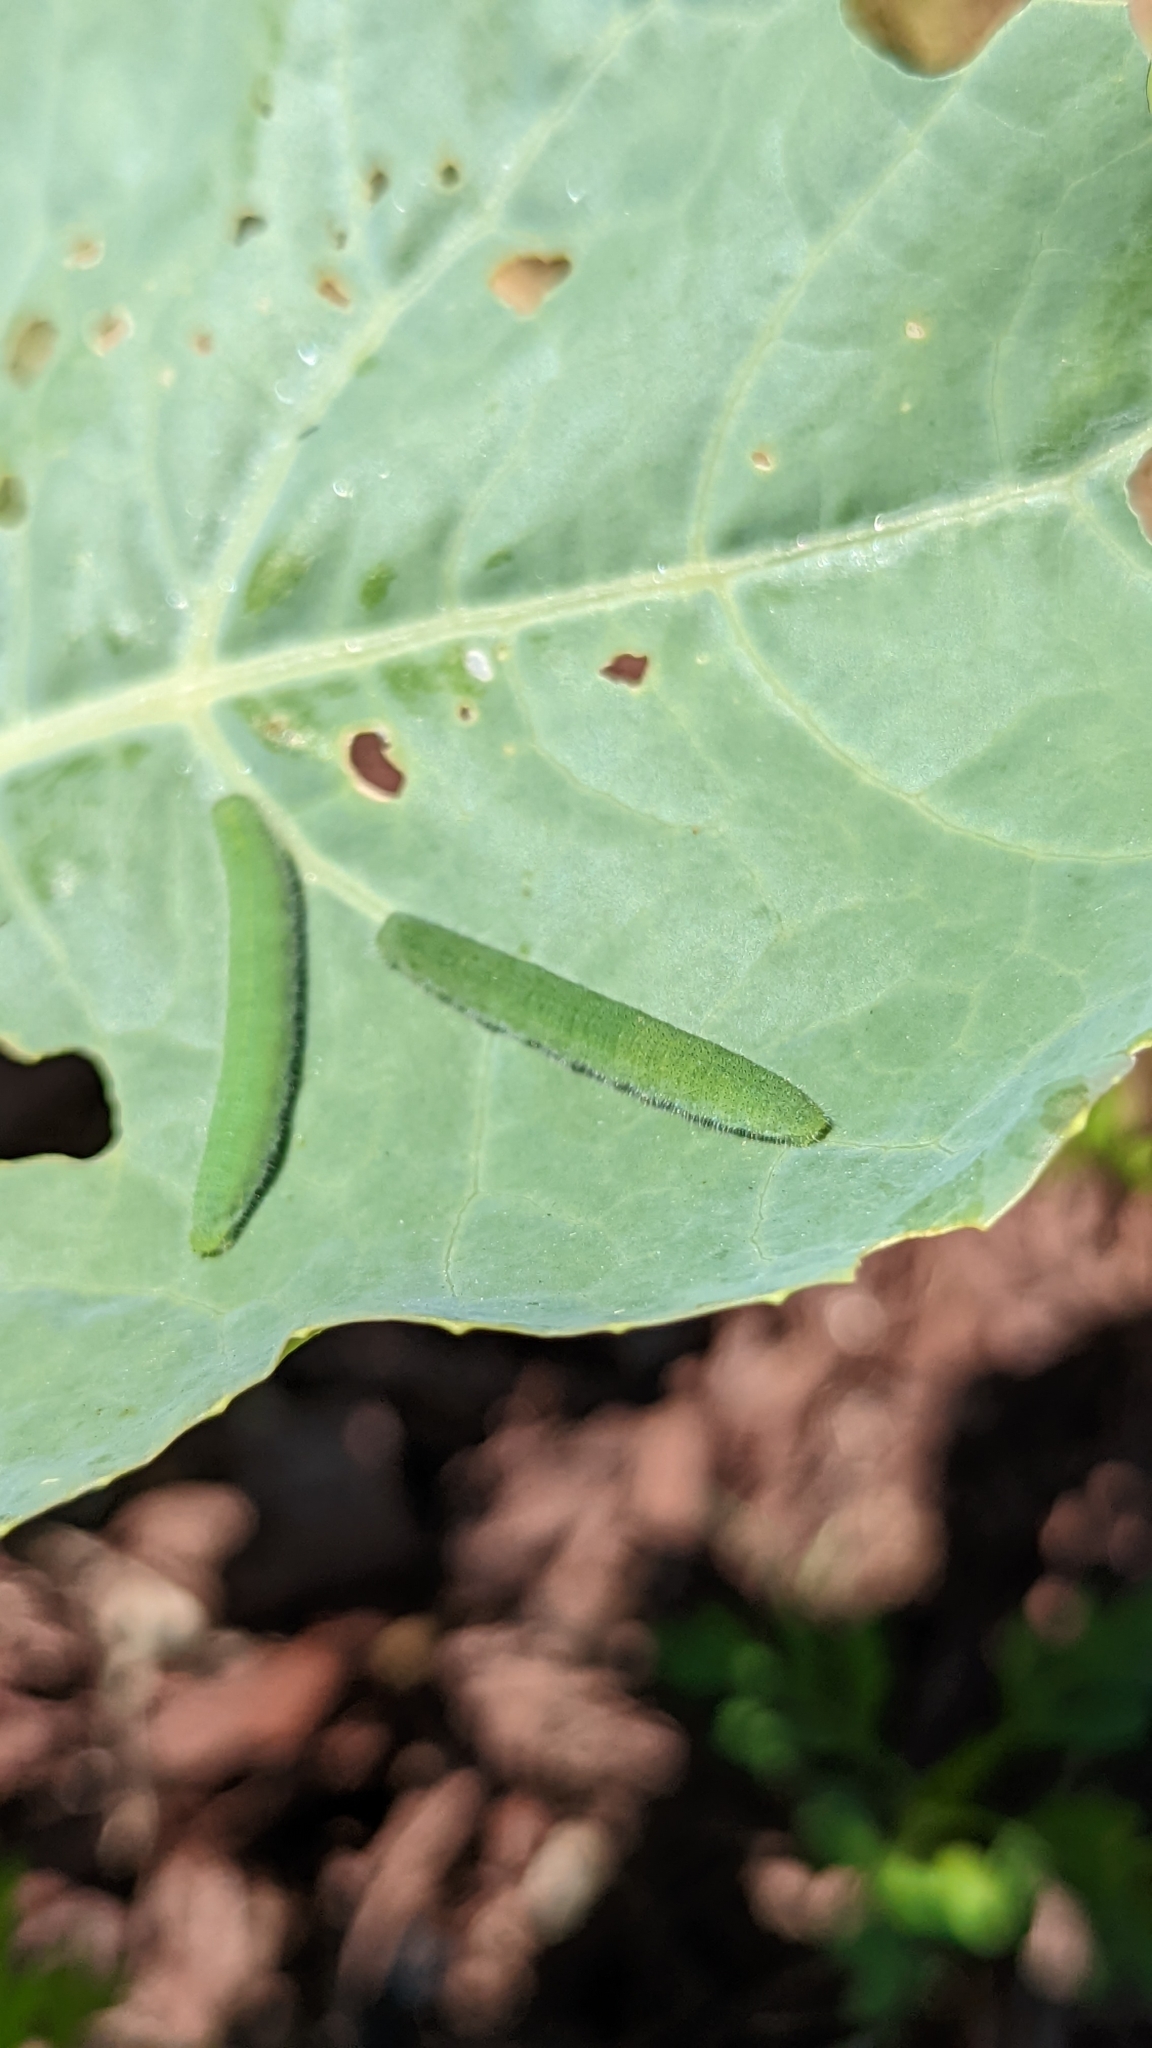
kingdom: Animalia
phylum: Arthropoda
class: Insecta
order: Lepidoptera
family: Pieridae
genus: Pieris
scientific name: Pieris rapae
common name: Small white
